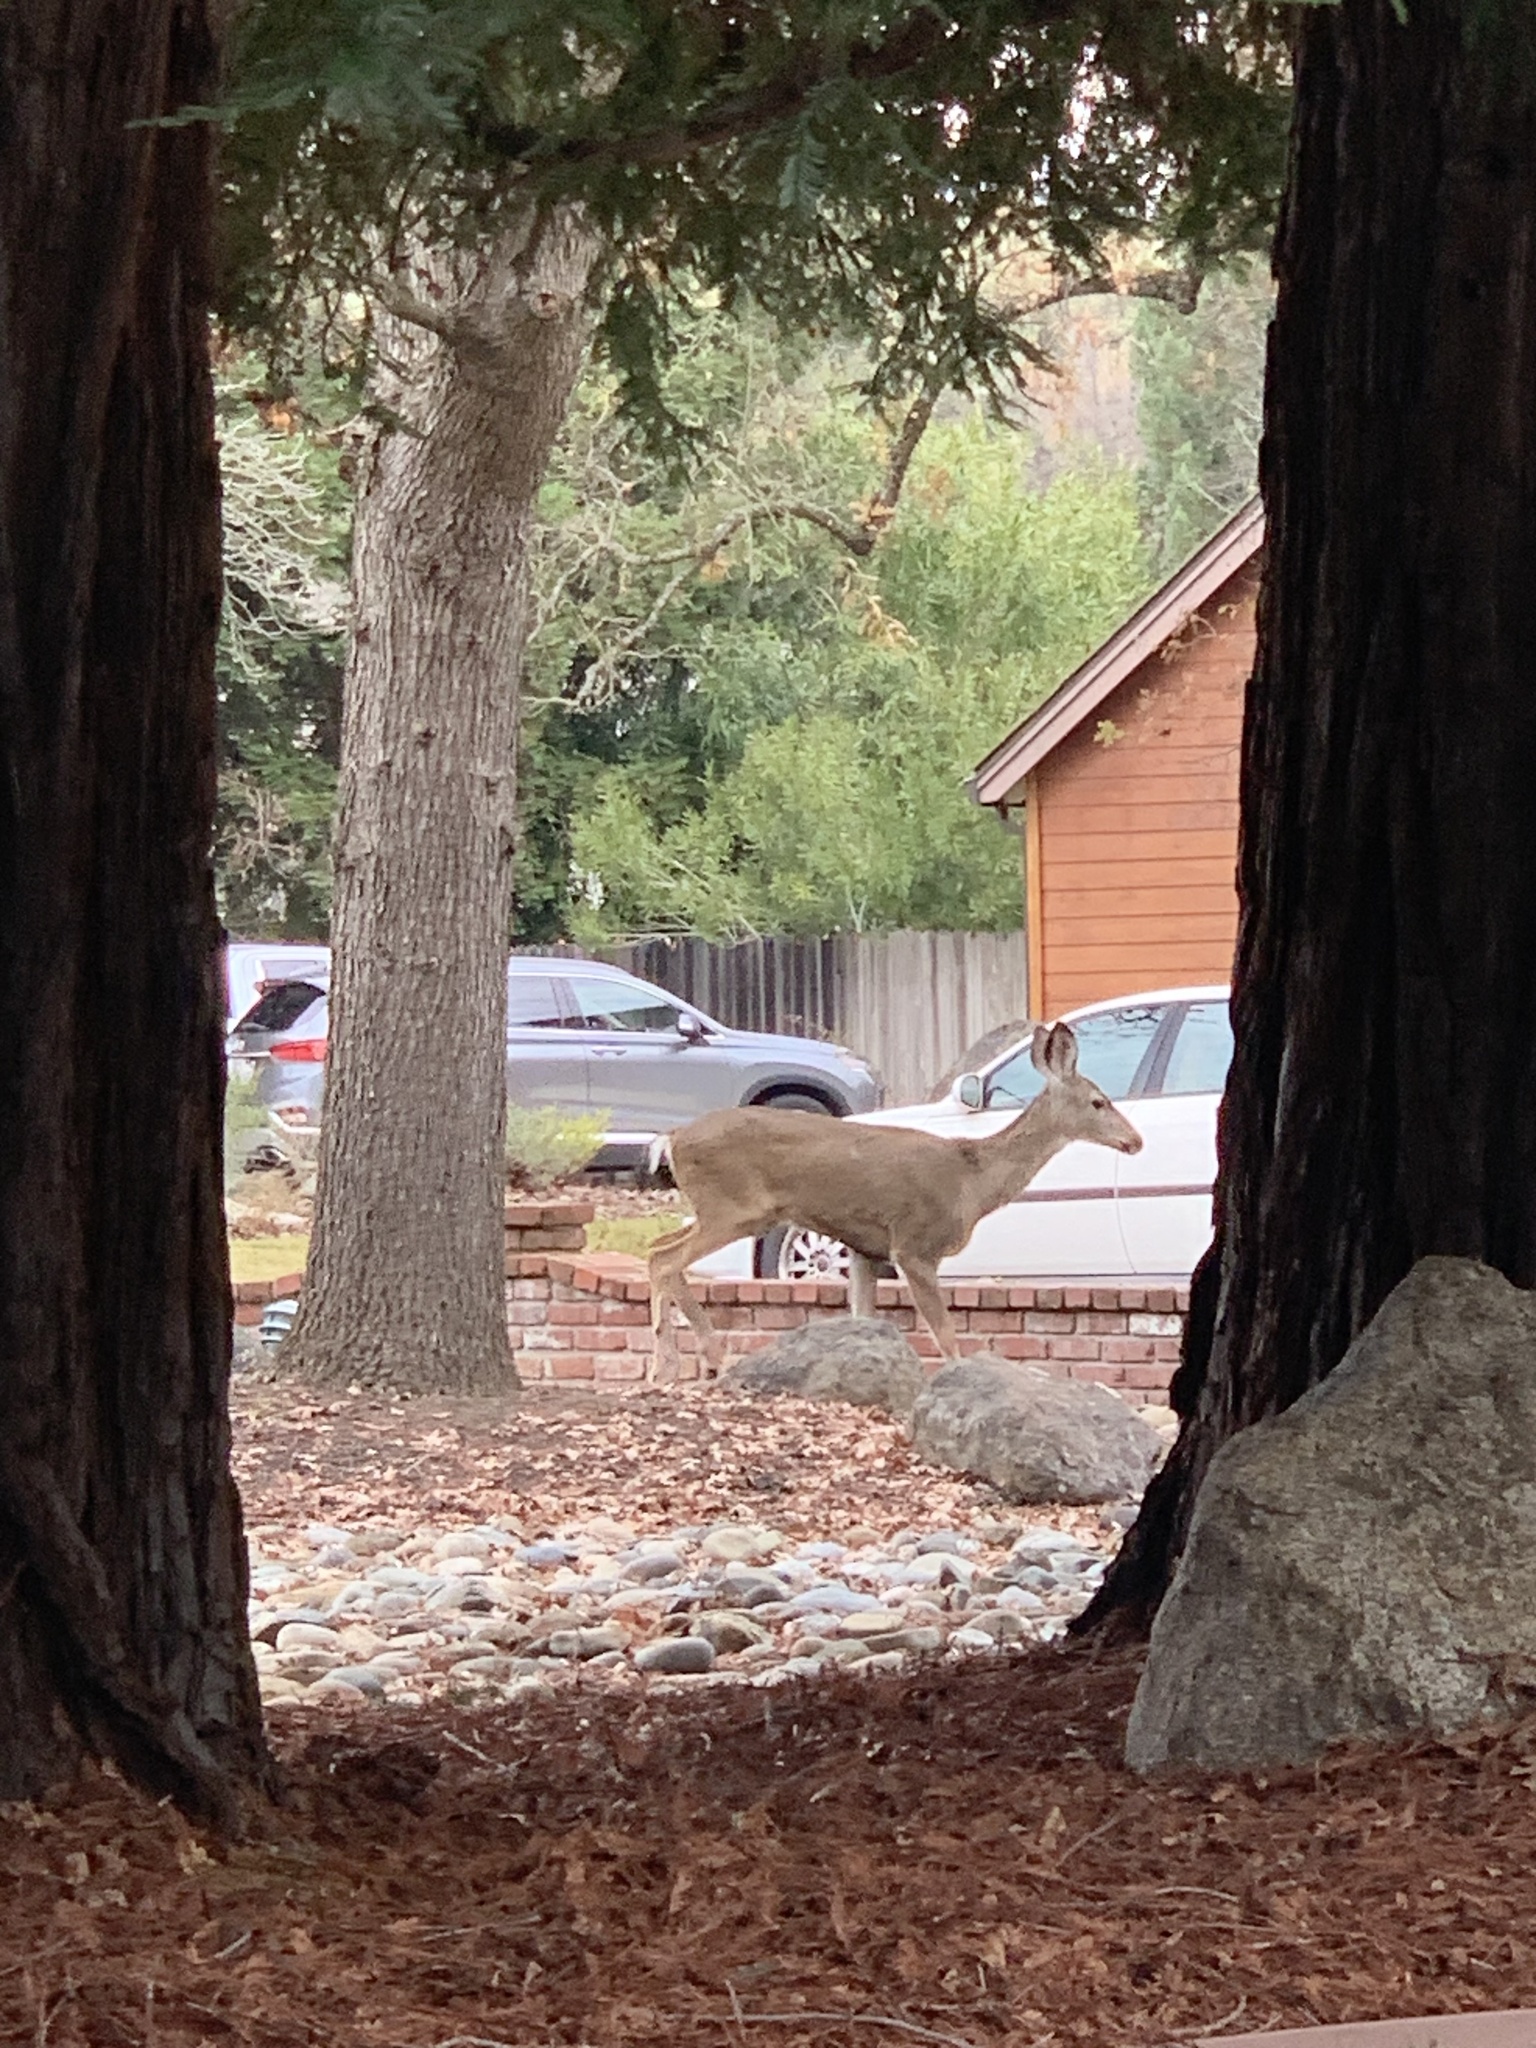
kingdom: Animalia
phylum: Chordata
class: Mammalia
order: Artiodactyla
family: Cervidae
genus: Odocoileus
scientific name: Odocoileus hemionus
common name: Mule deer
